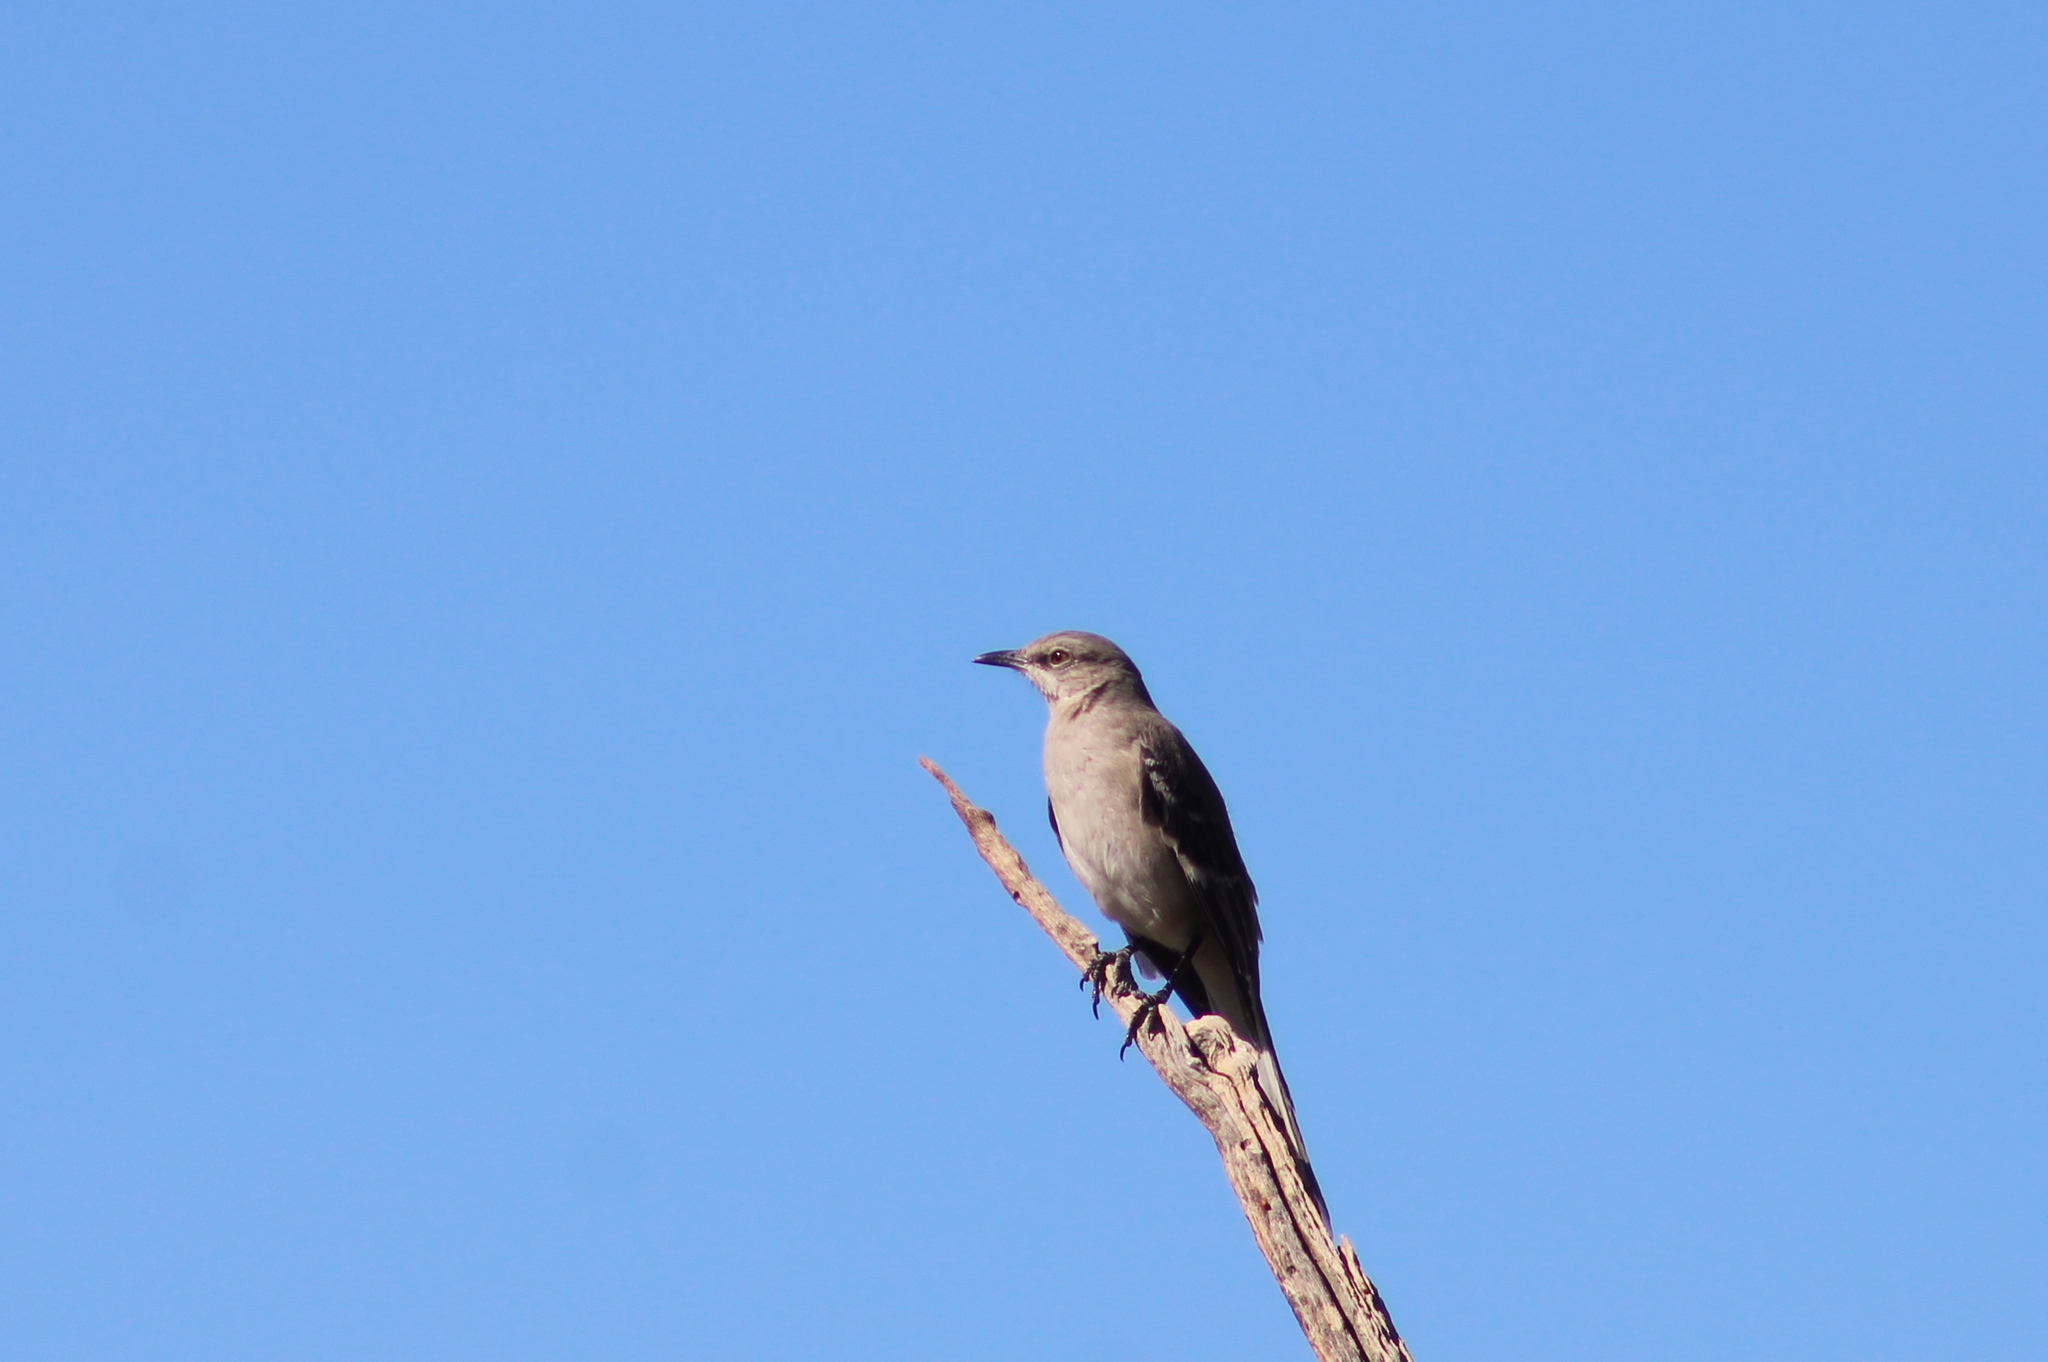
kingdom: Animalia
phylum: Chordata
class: Aves
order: Passeriformes
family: Mimidae
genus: Mimus
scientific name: Mimus polyglottos
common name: Northern mockingbird
